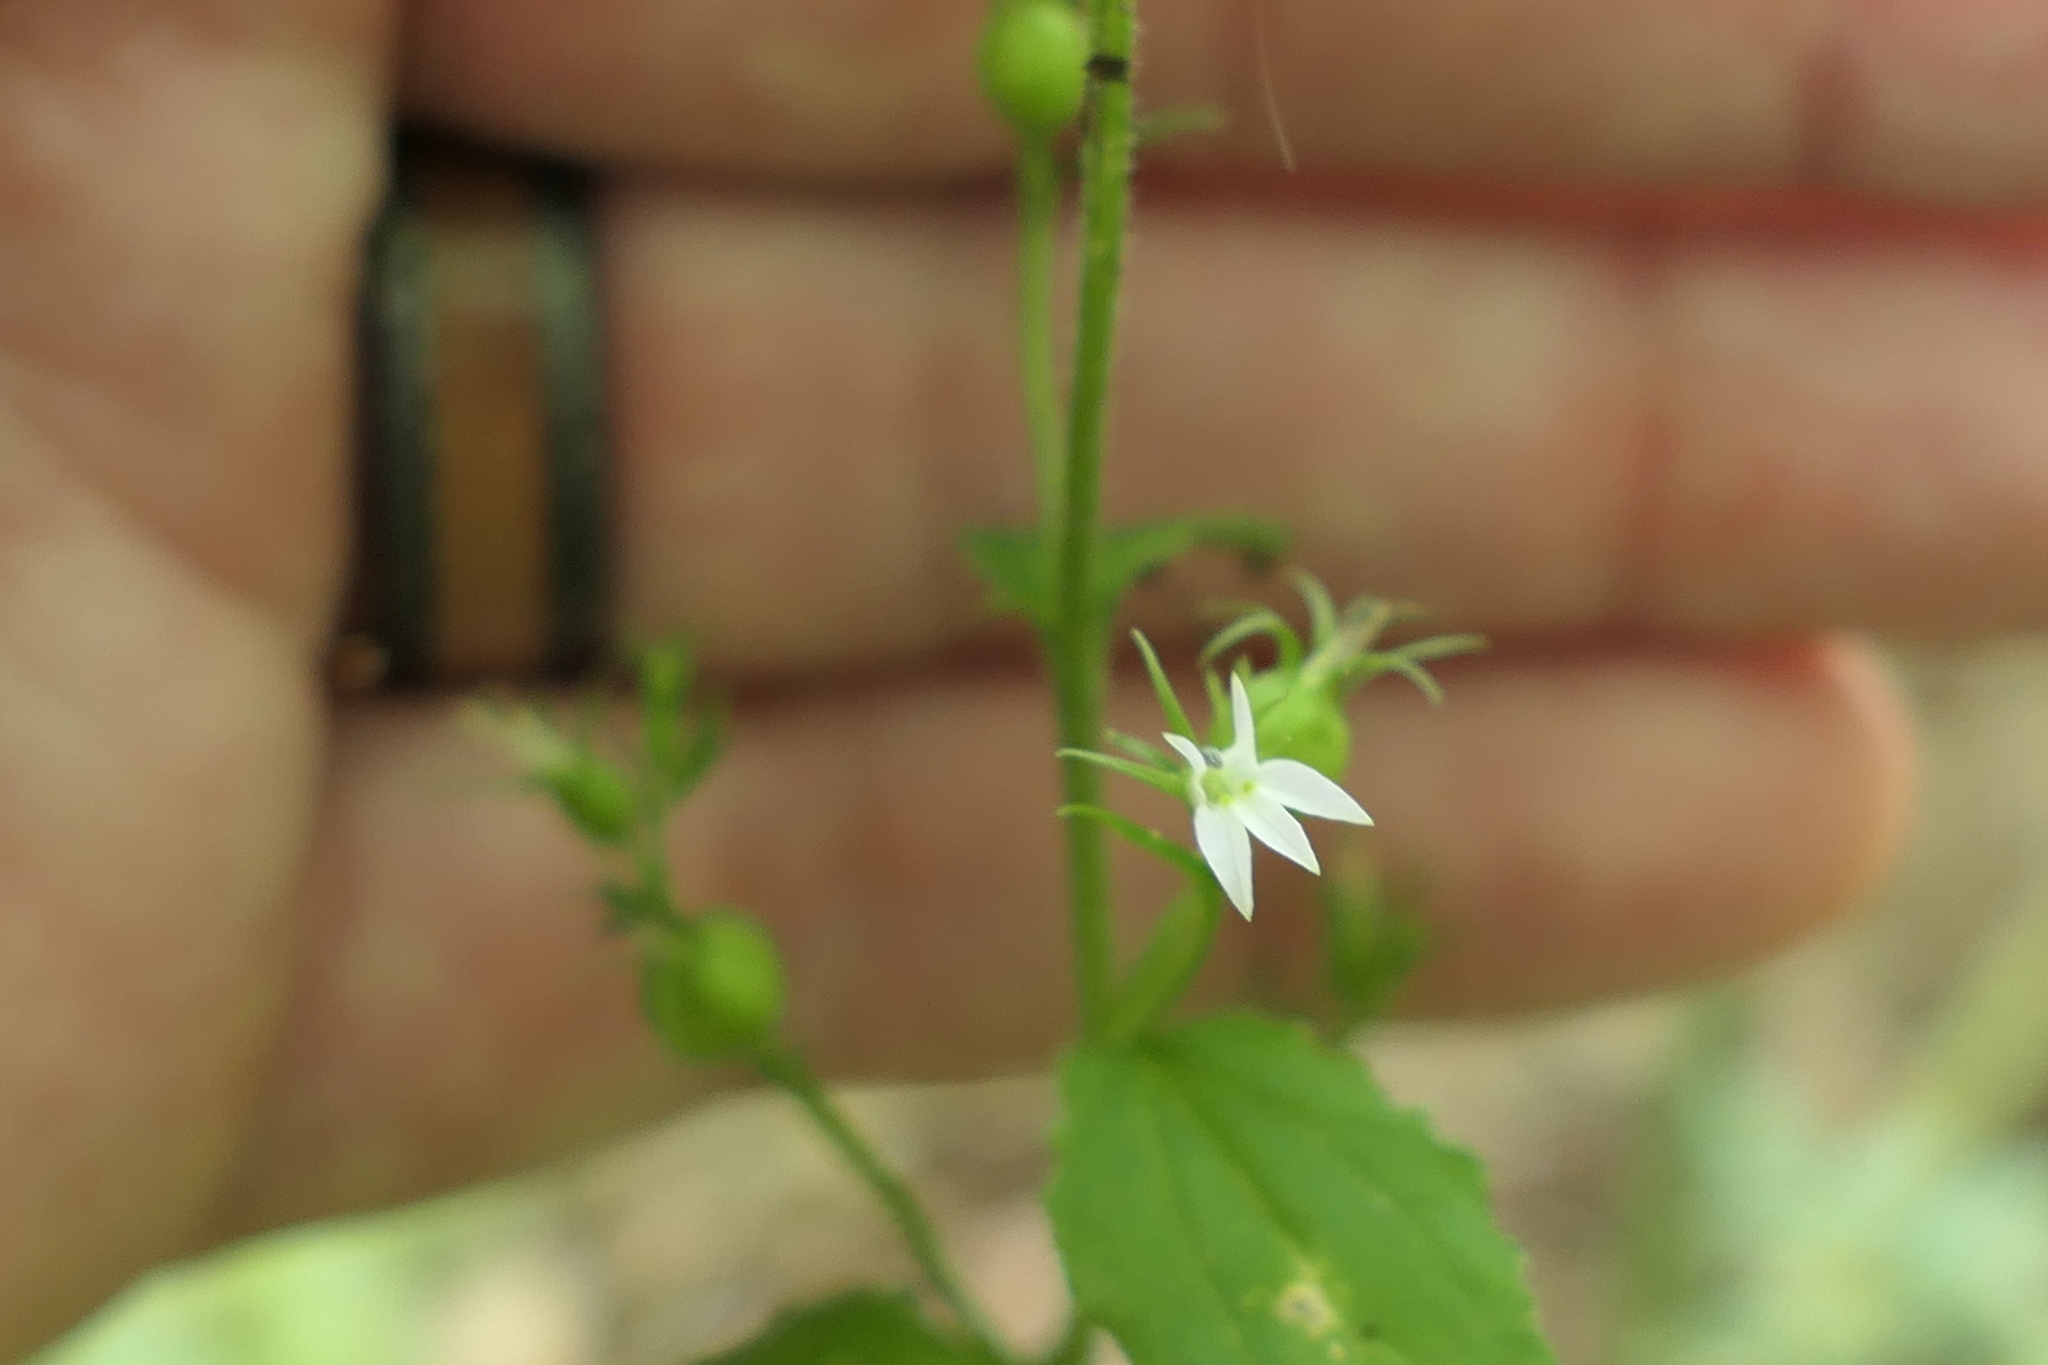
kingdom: Plantae
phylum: Tracheophyta
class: Magnoliopsida
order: Asterales
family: Campanulaceae
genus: Lobelia
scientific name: Lobelia inflata
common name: Indian tobacco
